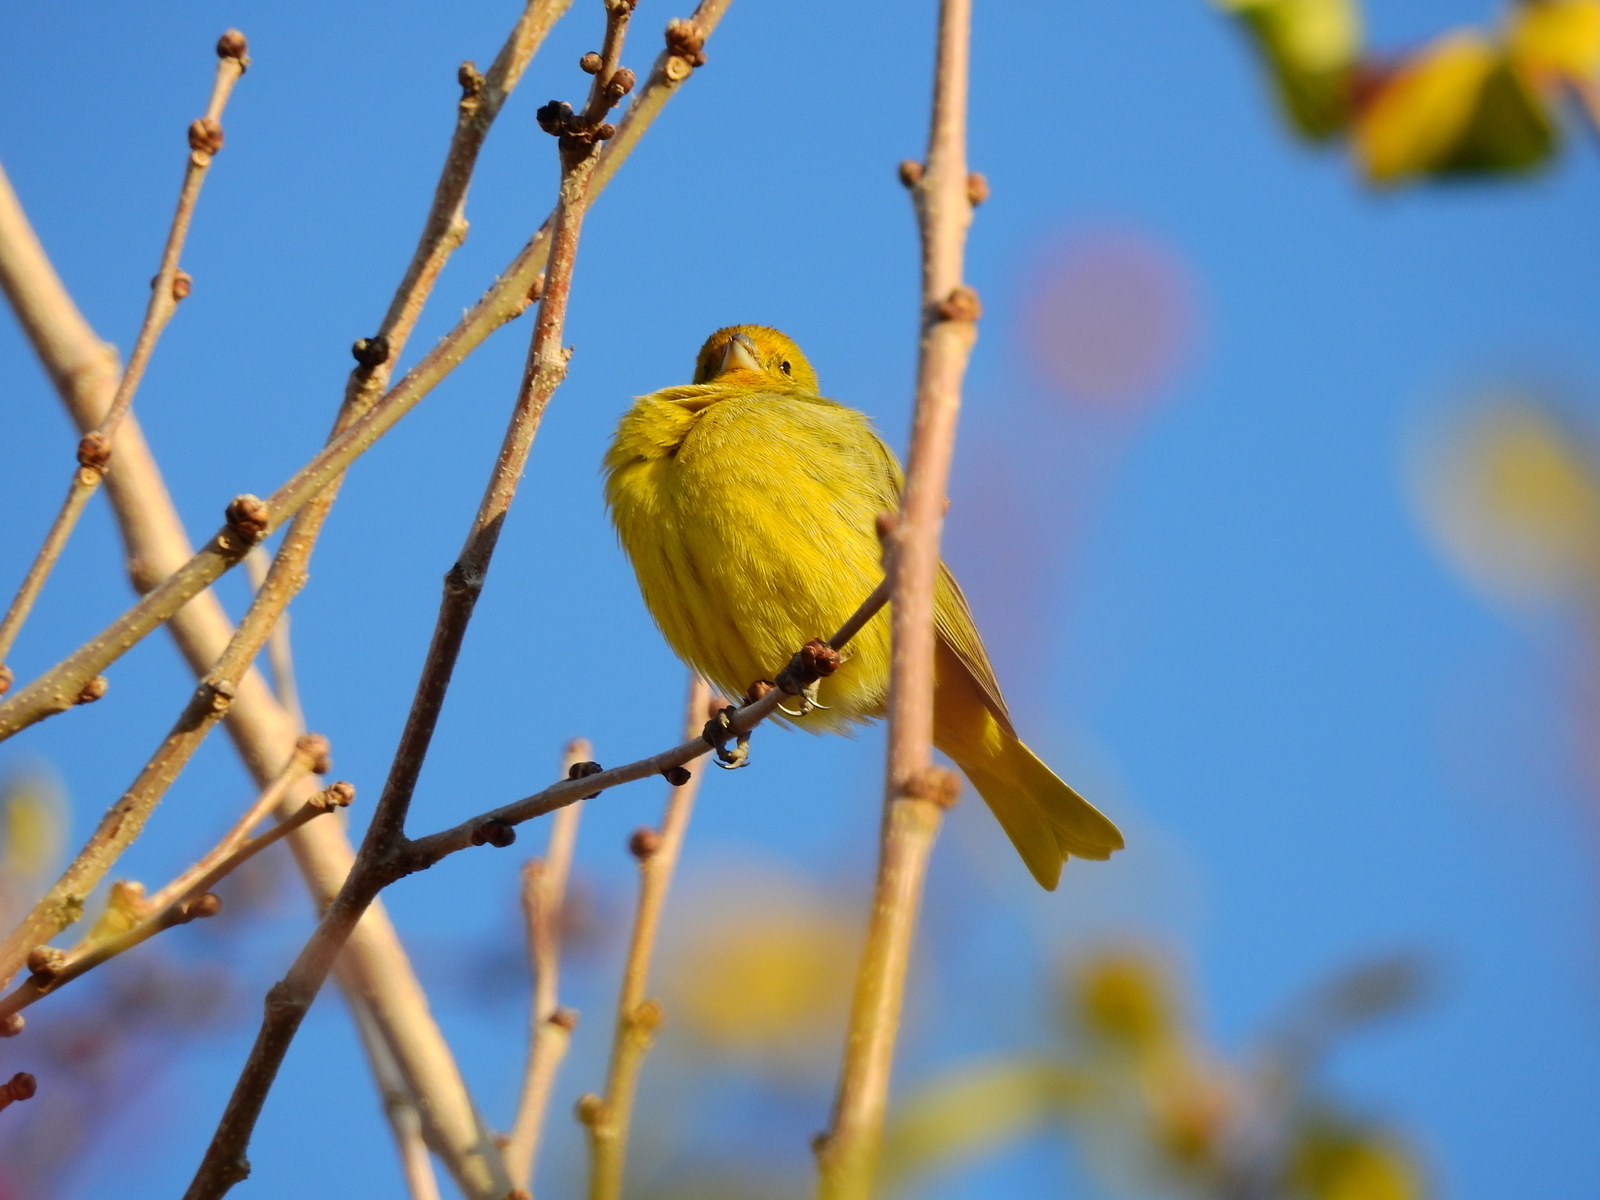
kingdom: Animalia
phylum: Chordata
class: Aves
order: Passeriformes
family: Thraupidae
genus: Sicalis
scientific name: Sicalis flaveola
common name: Saffron finch
